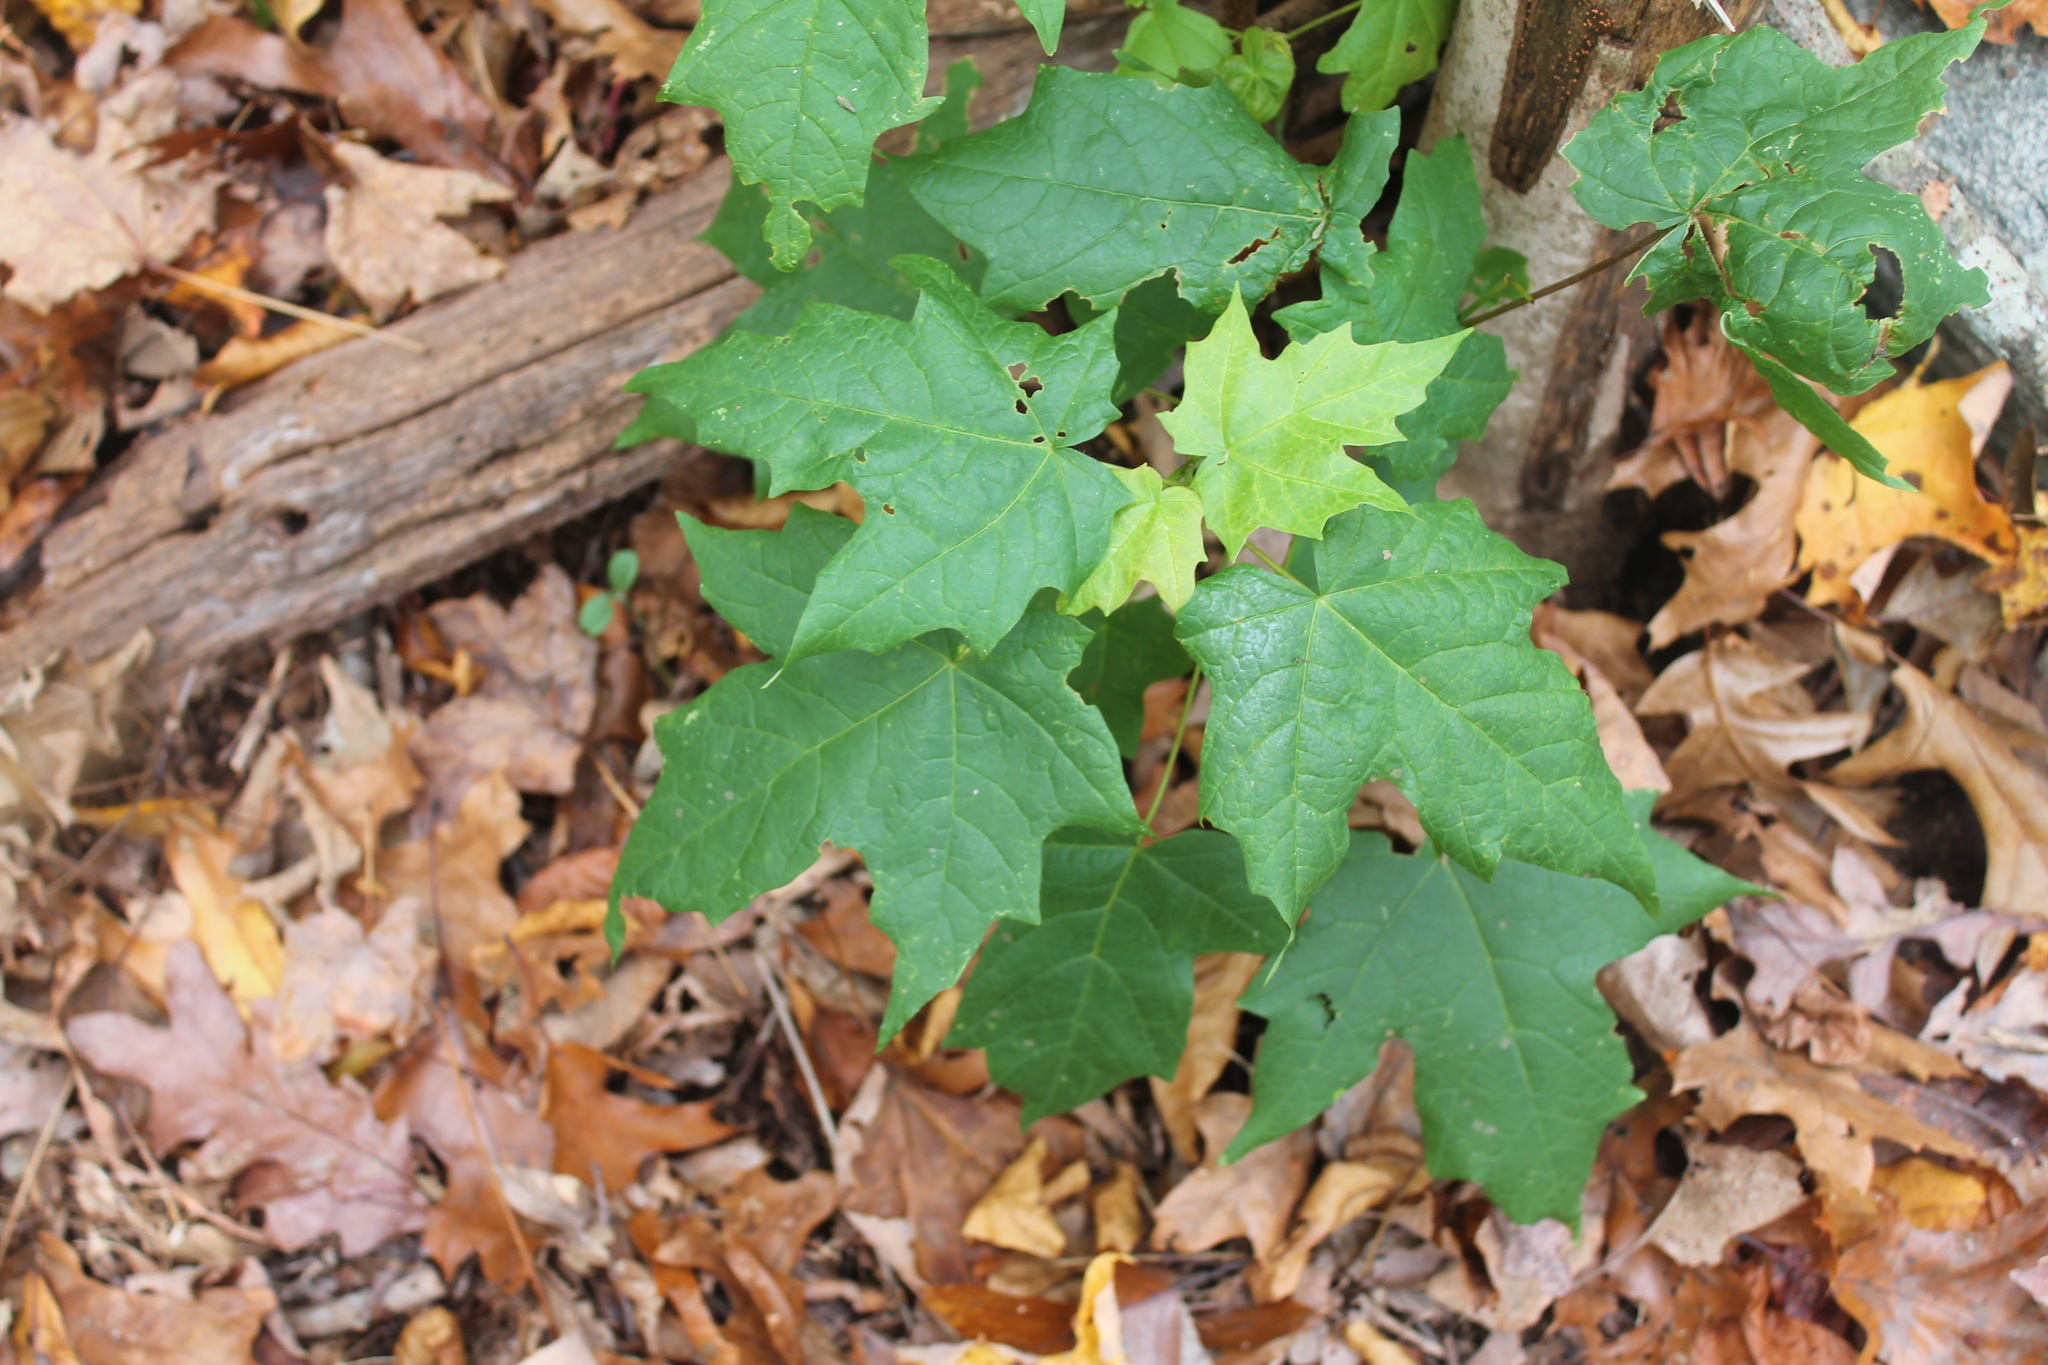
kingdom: Plantae
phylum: Tracheophyta
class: Magnoliopsida
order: Sapindales
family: Sapindaceae
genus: Acer
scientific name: Acer saccharum
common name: Sugar maple
